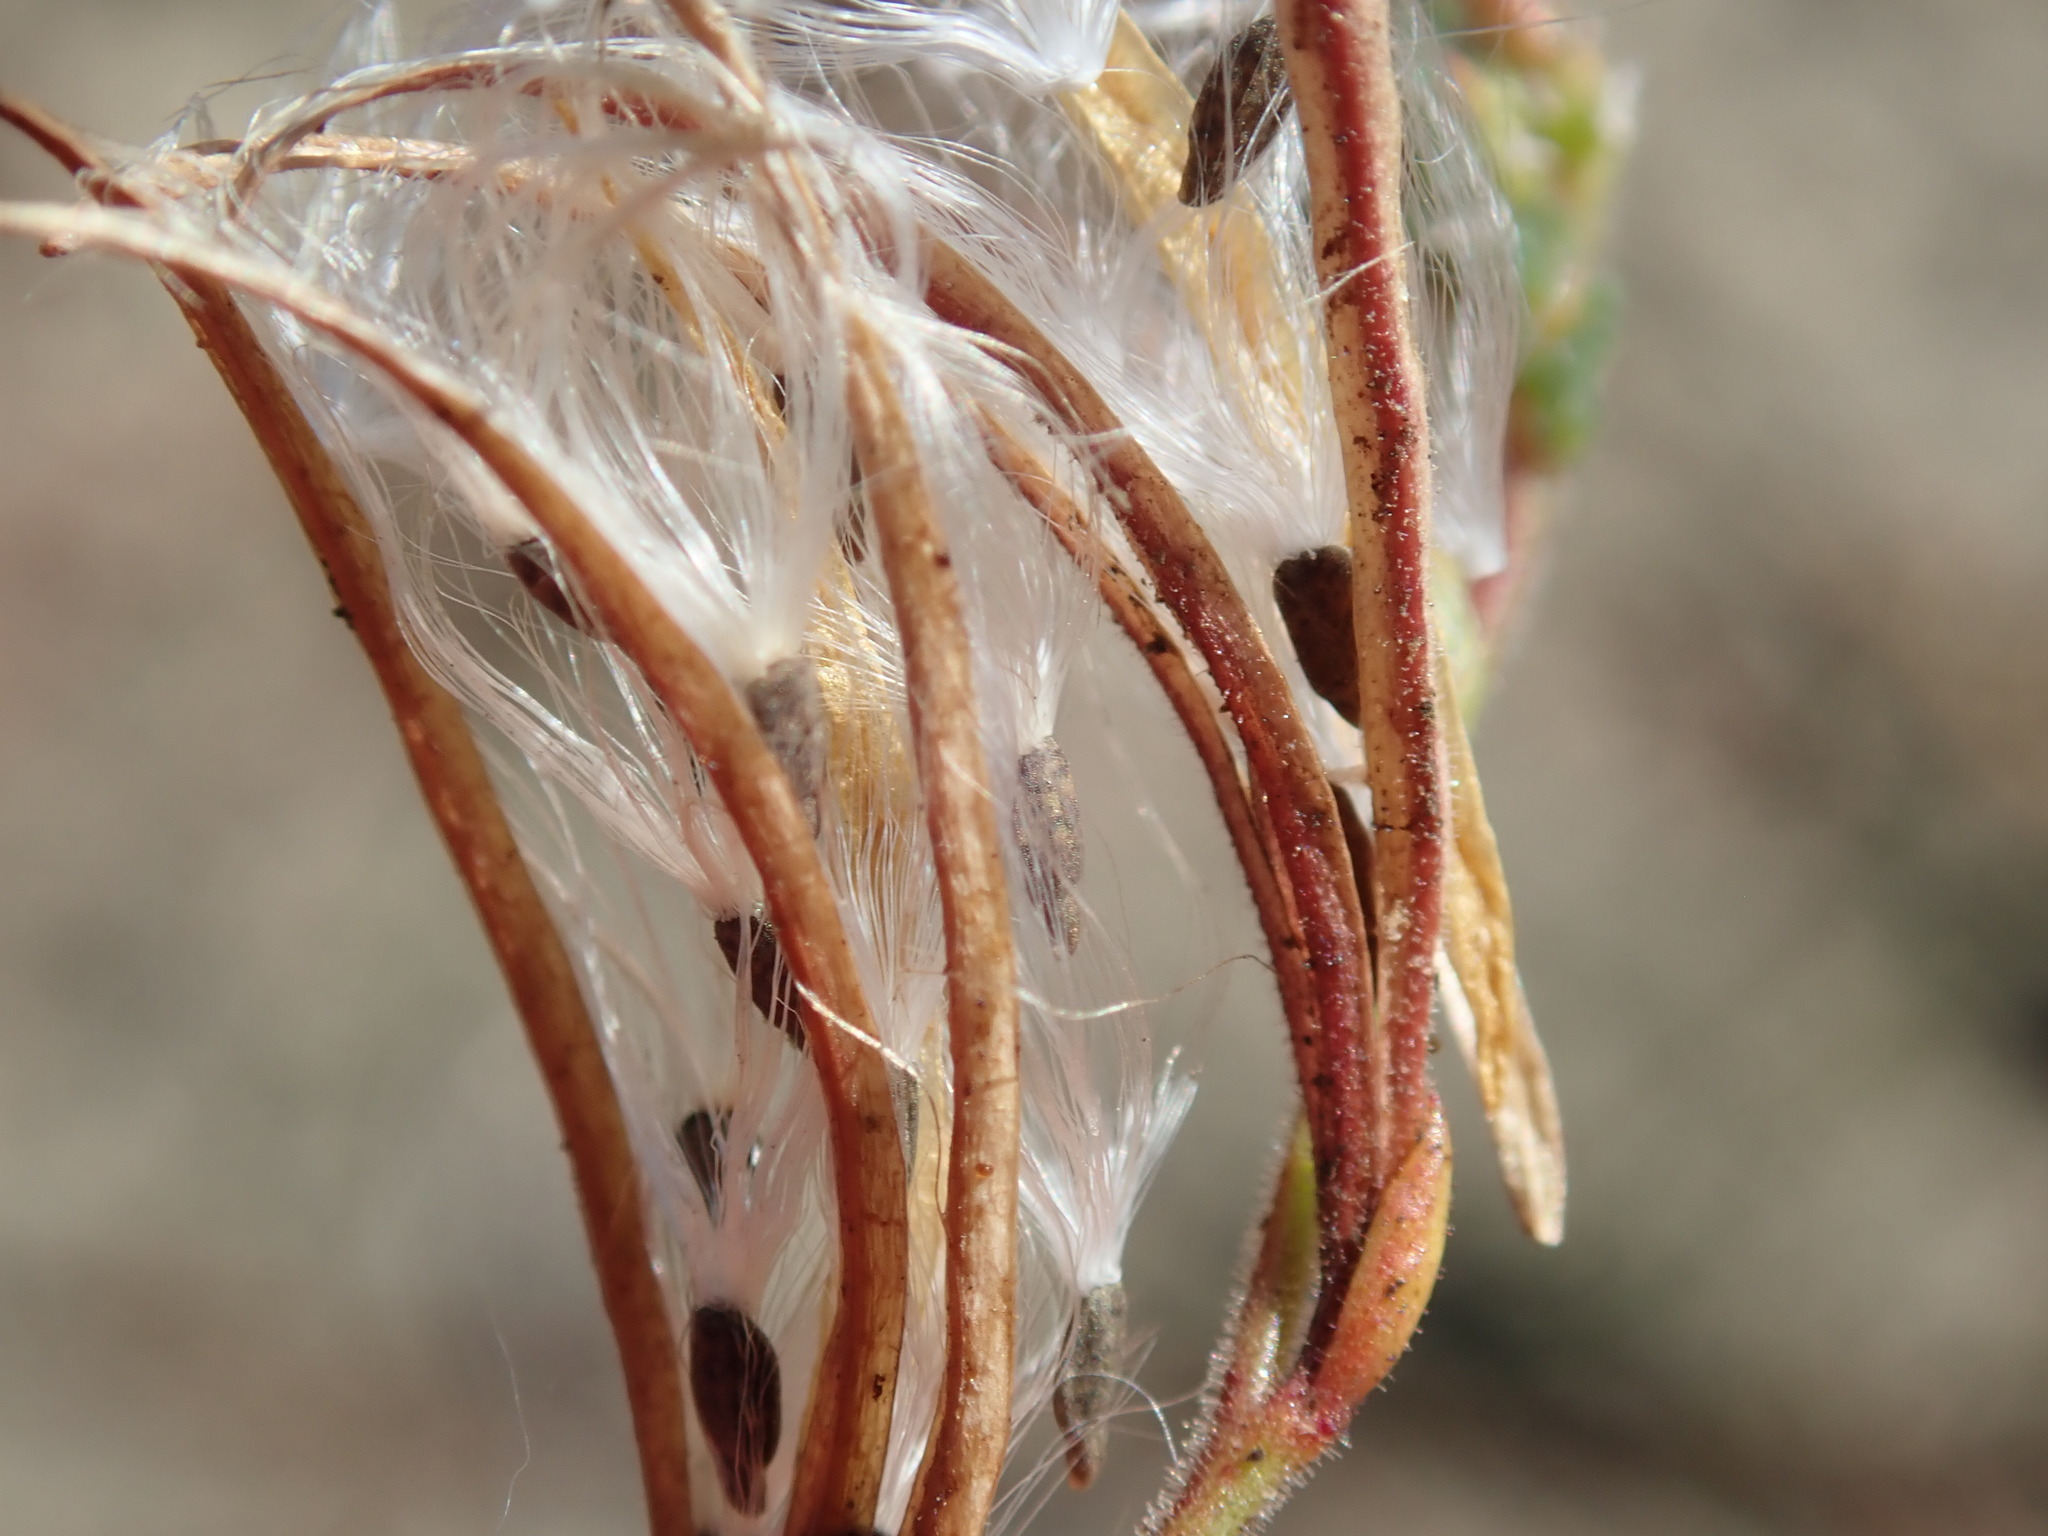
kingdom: Plantae
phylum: Tracheophyta
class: Magnoliopsida
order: Myrtales
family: Onagraceae
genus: Epilobium
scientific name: Epilobium brachycarpum
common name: Annual willowherb
